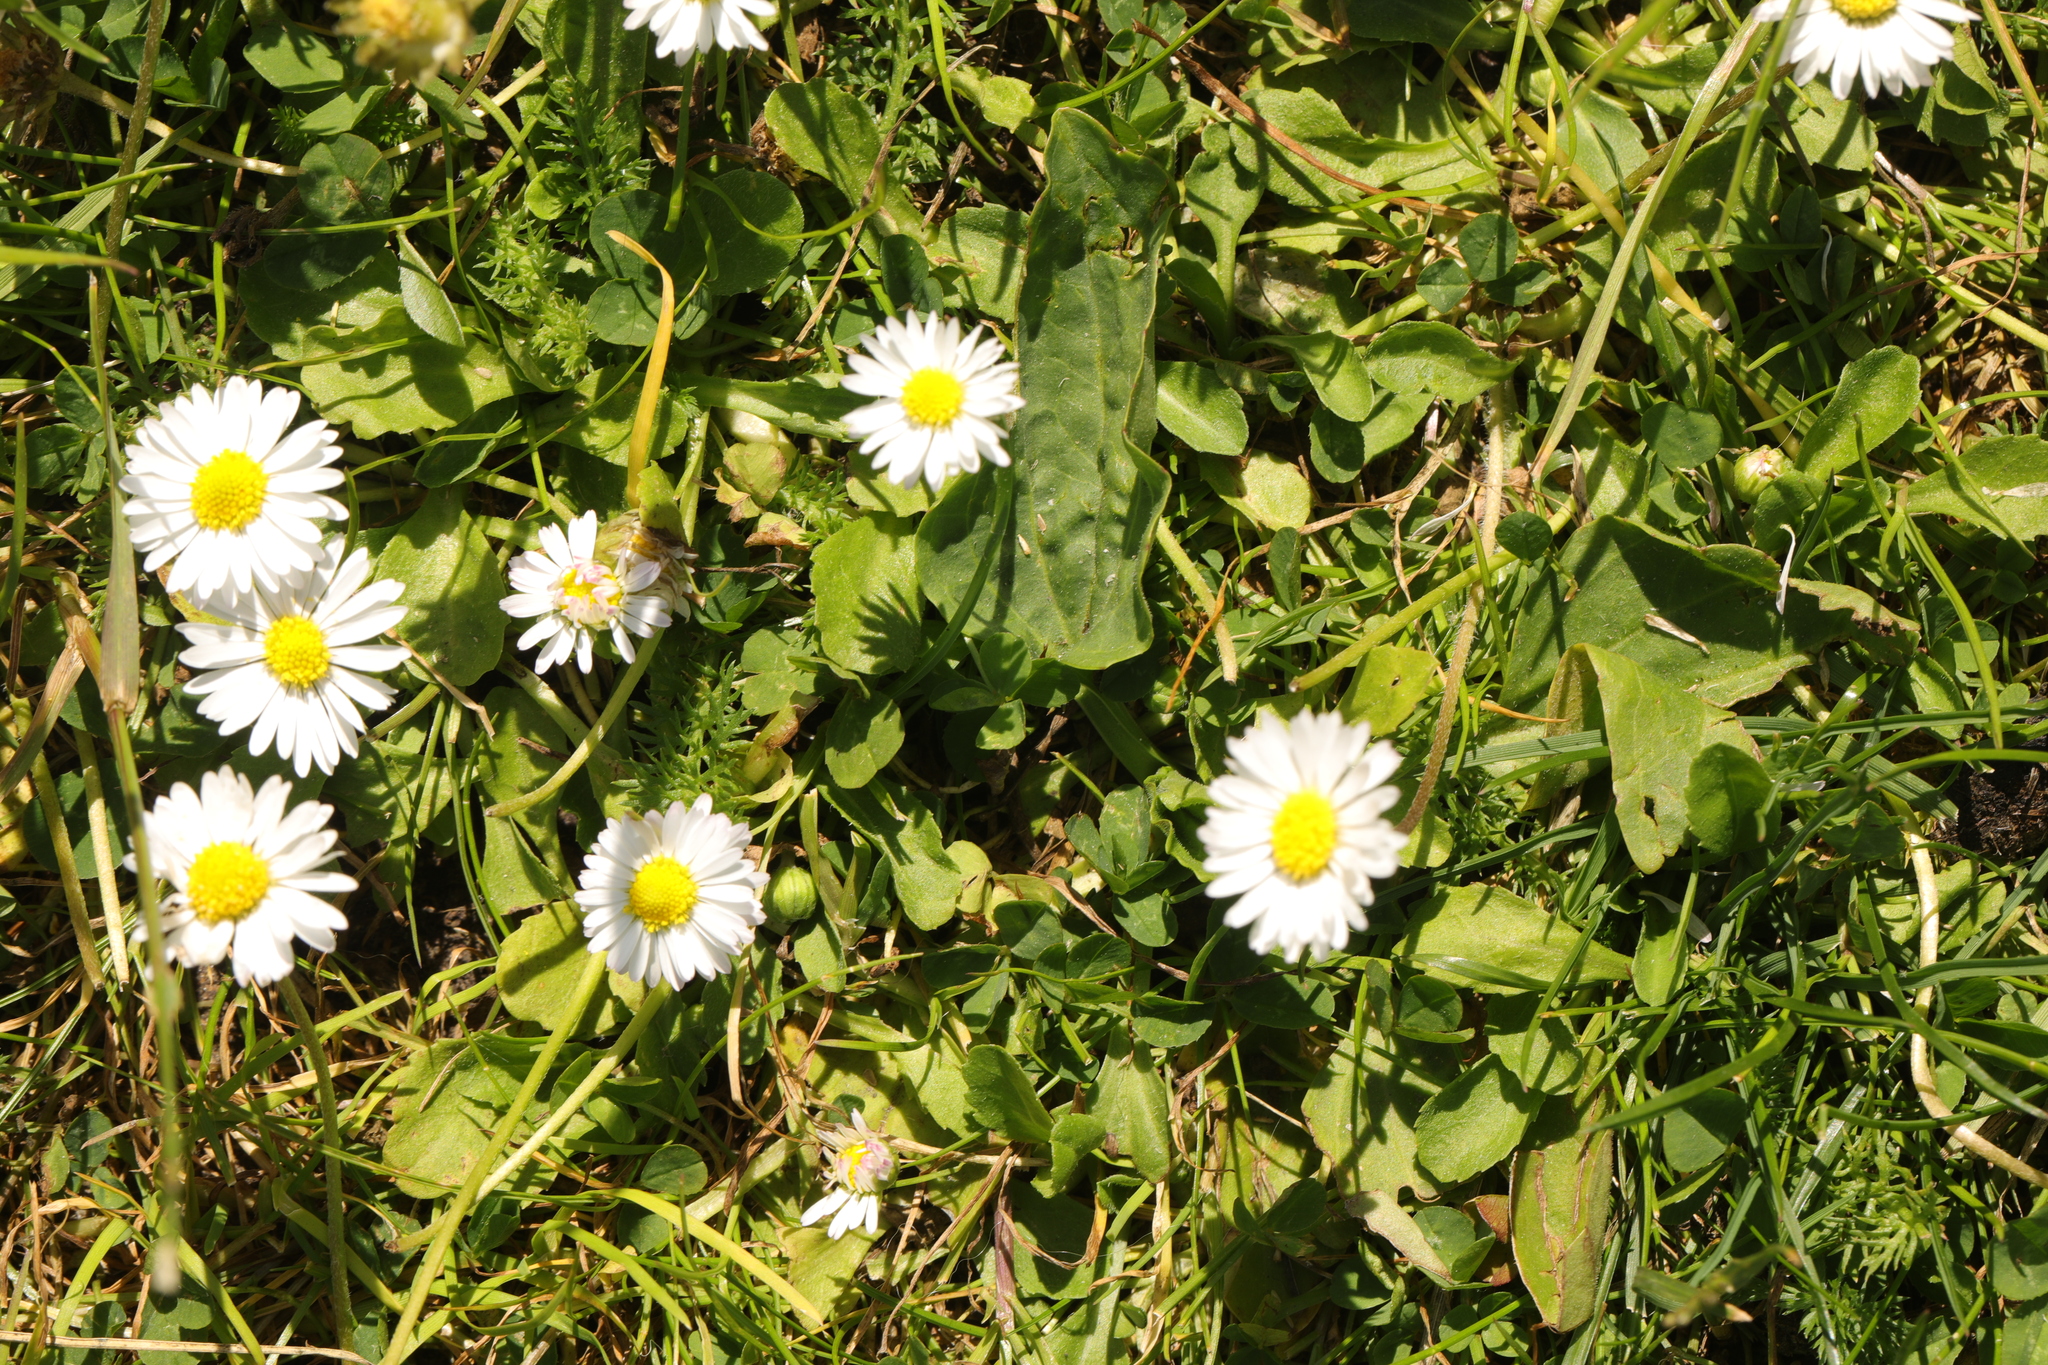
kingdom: Plantae
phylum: Tracheophyta
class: Magnoliopsida
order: Asterales
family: Asteraceae
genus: Bellis
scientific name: Bellis perennis
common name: Lawndaisy
